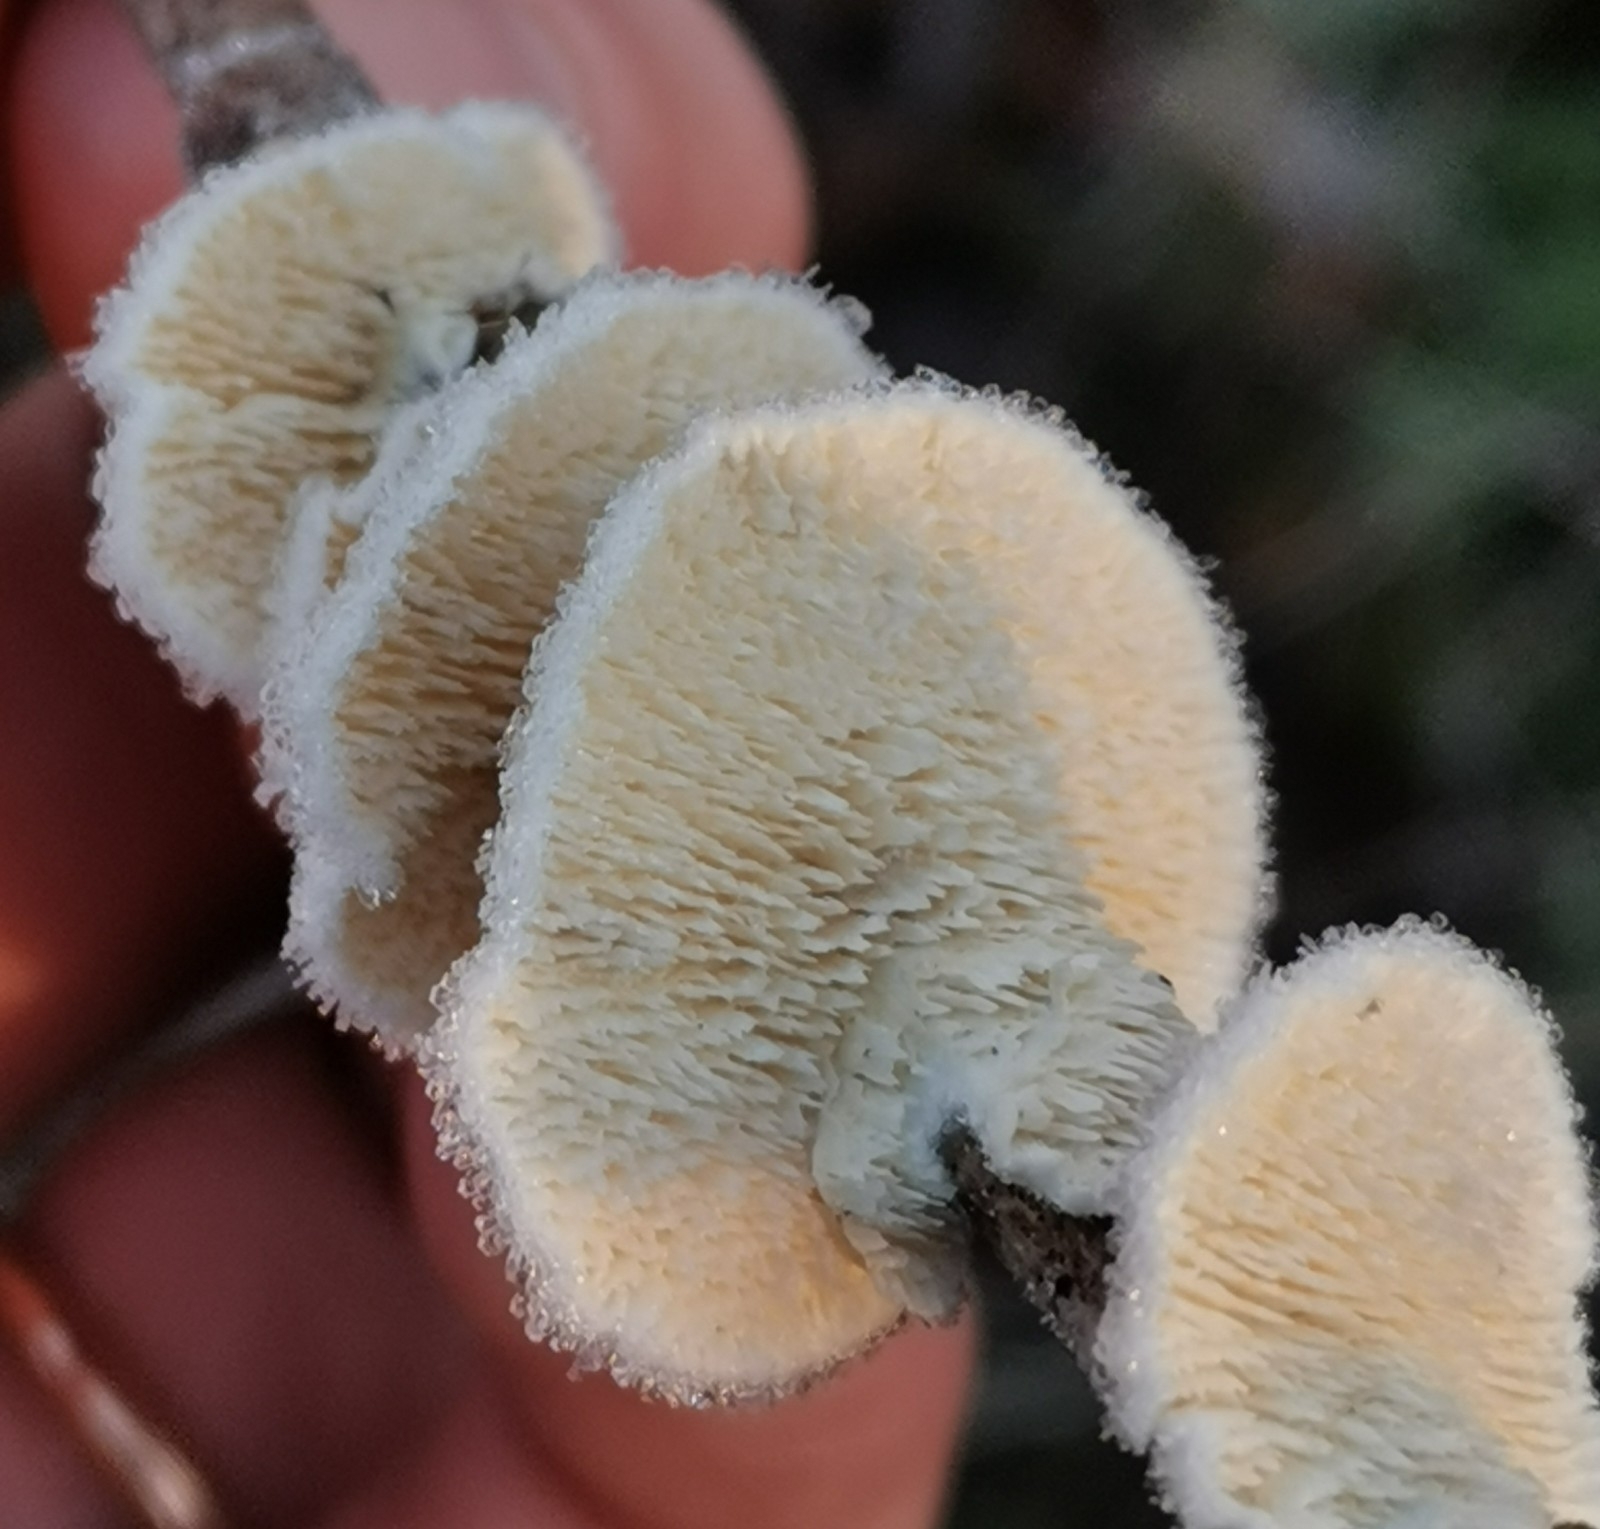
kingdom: Fungi
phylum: Basidiomycota
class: Agaricomycetes
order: Polyporales
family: Irpicaceae
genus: Irpex
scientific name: Irpex lacteus
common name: Milk-white toothed polypore
